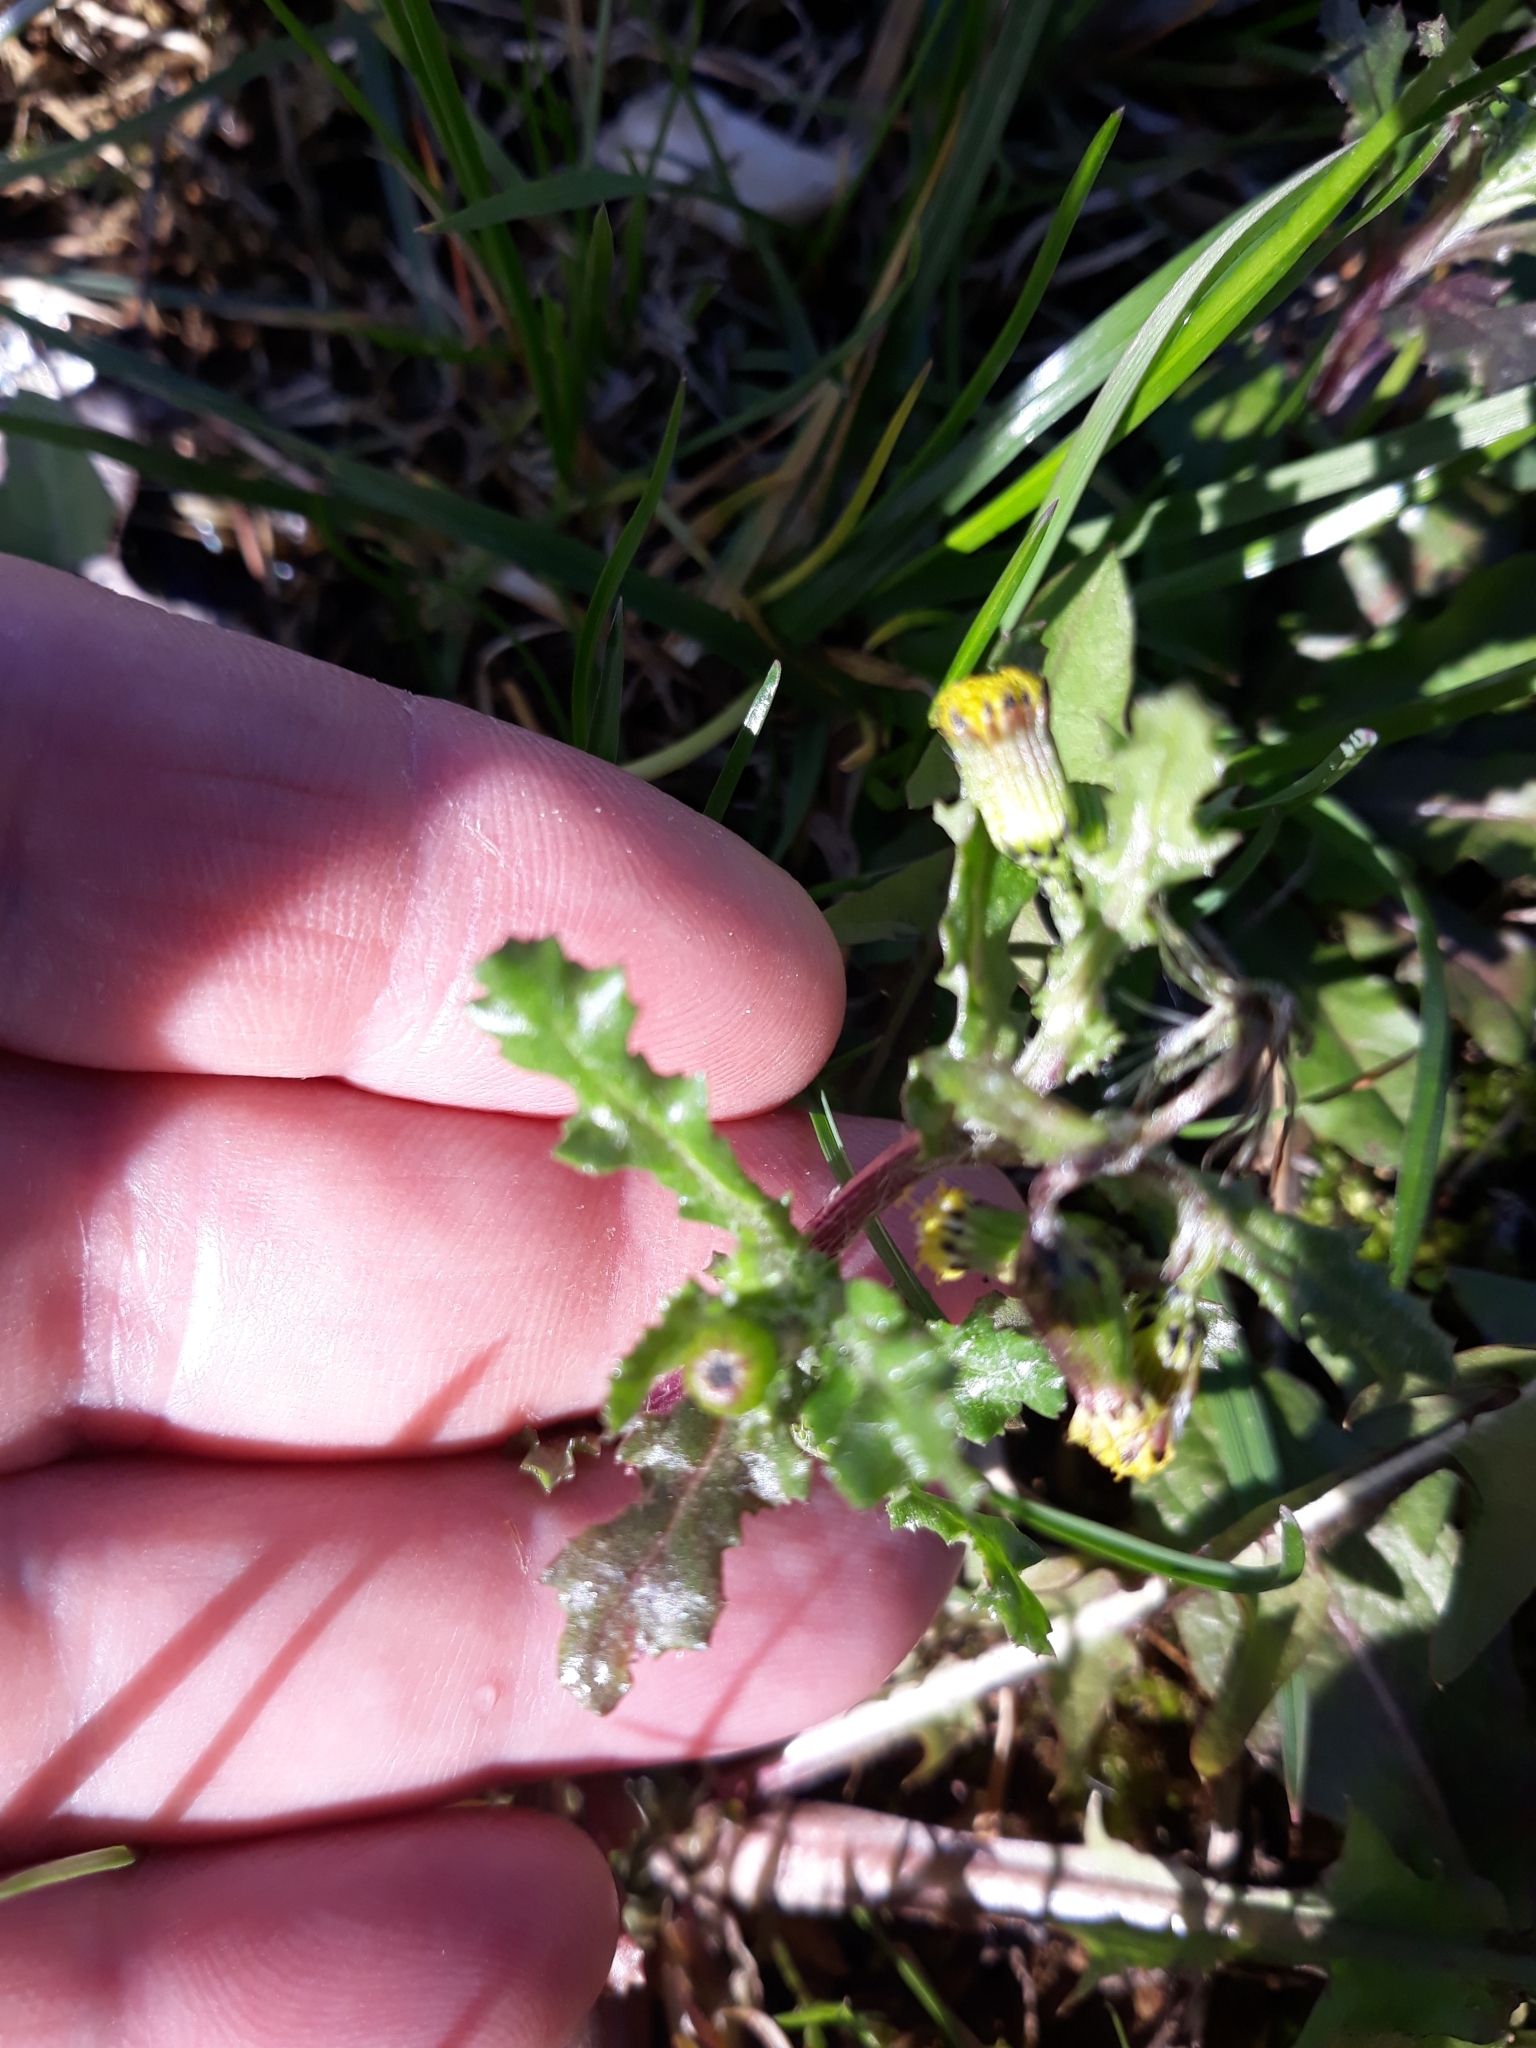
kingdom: Plantae
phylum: Tracheophyta
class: Magnoliopsida
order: Asterales
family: Asteraceae
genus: Senecio
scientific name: Senecio vulgaris
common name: Old-man-in-the-spring
